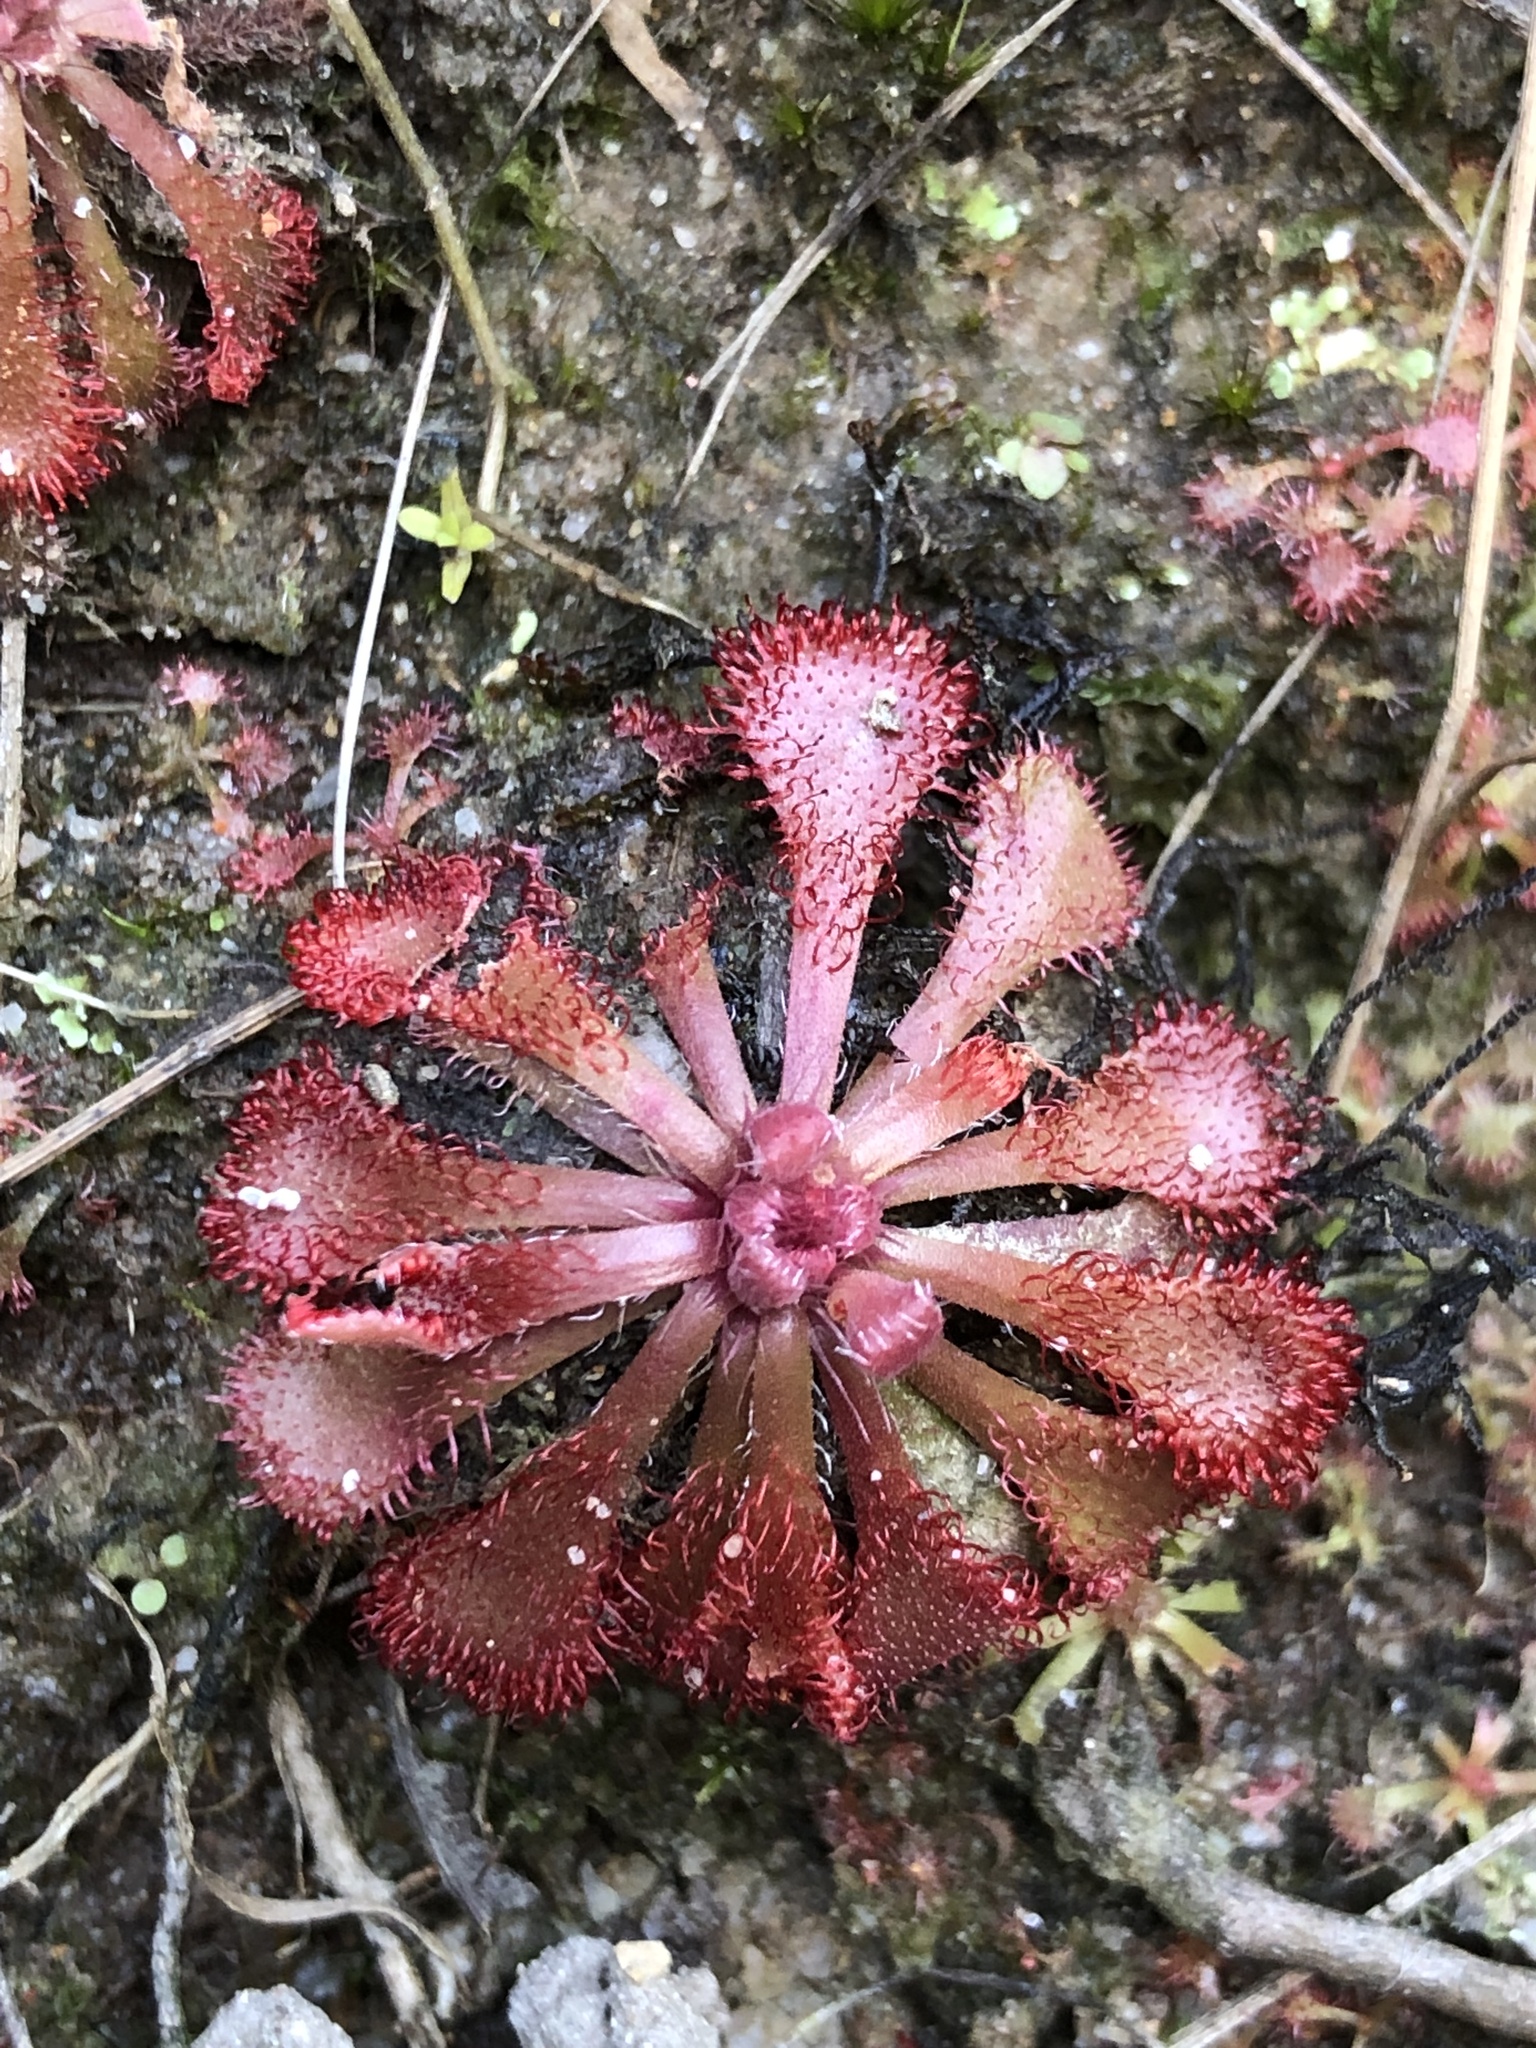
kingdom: Plantae
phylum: Tracheophyta
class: Magnoliopsida
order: Caryophyllales
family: Droseraceae
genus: Drosera
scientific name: Drosera spatulata
